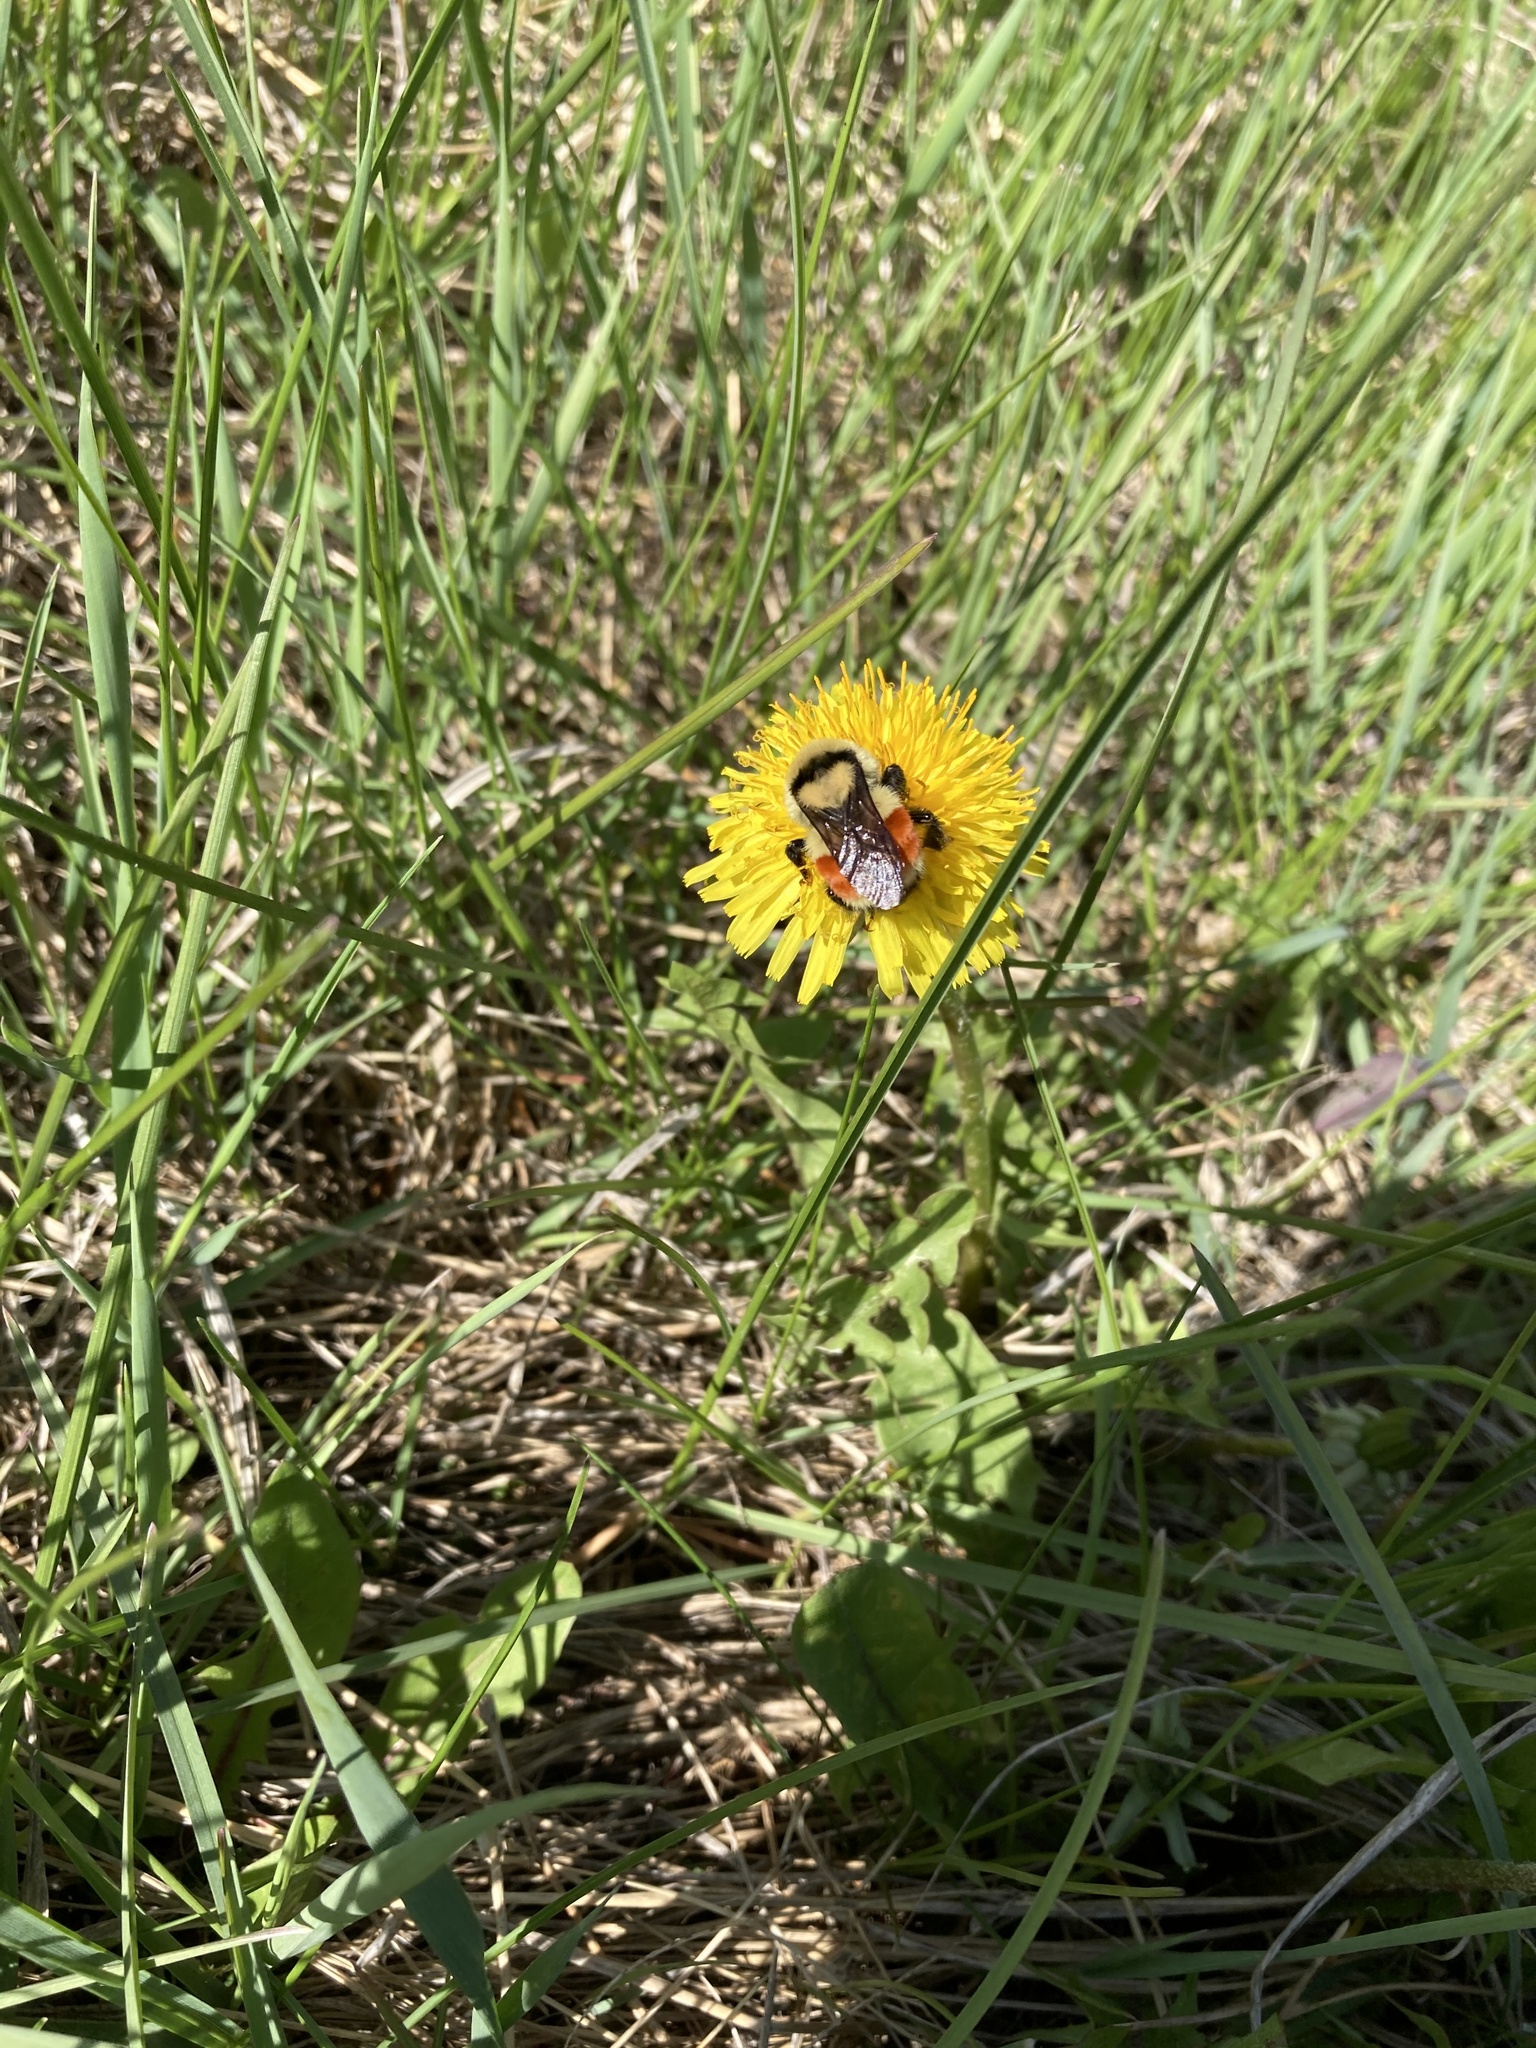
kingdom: Animalia
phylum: Arthropoda
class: Insecta
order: Hymenoptera
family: Apidae
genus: Bombus
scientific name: Bombus huntii
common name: Hunt bumble bee
